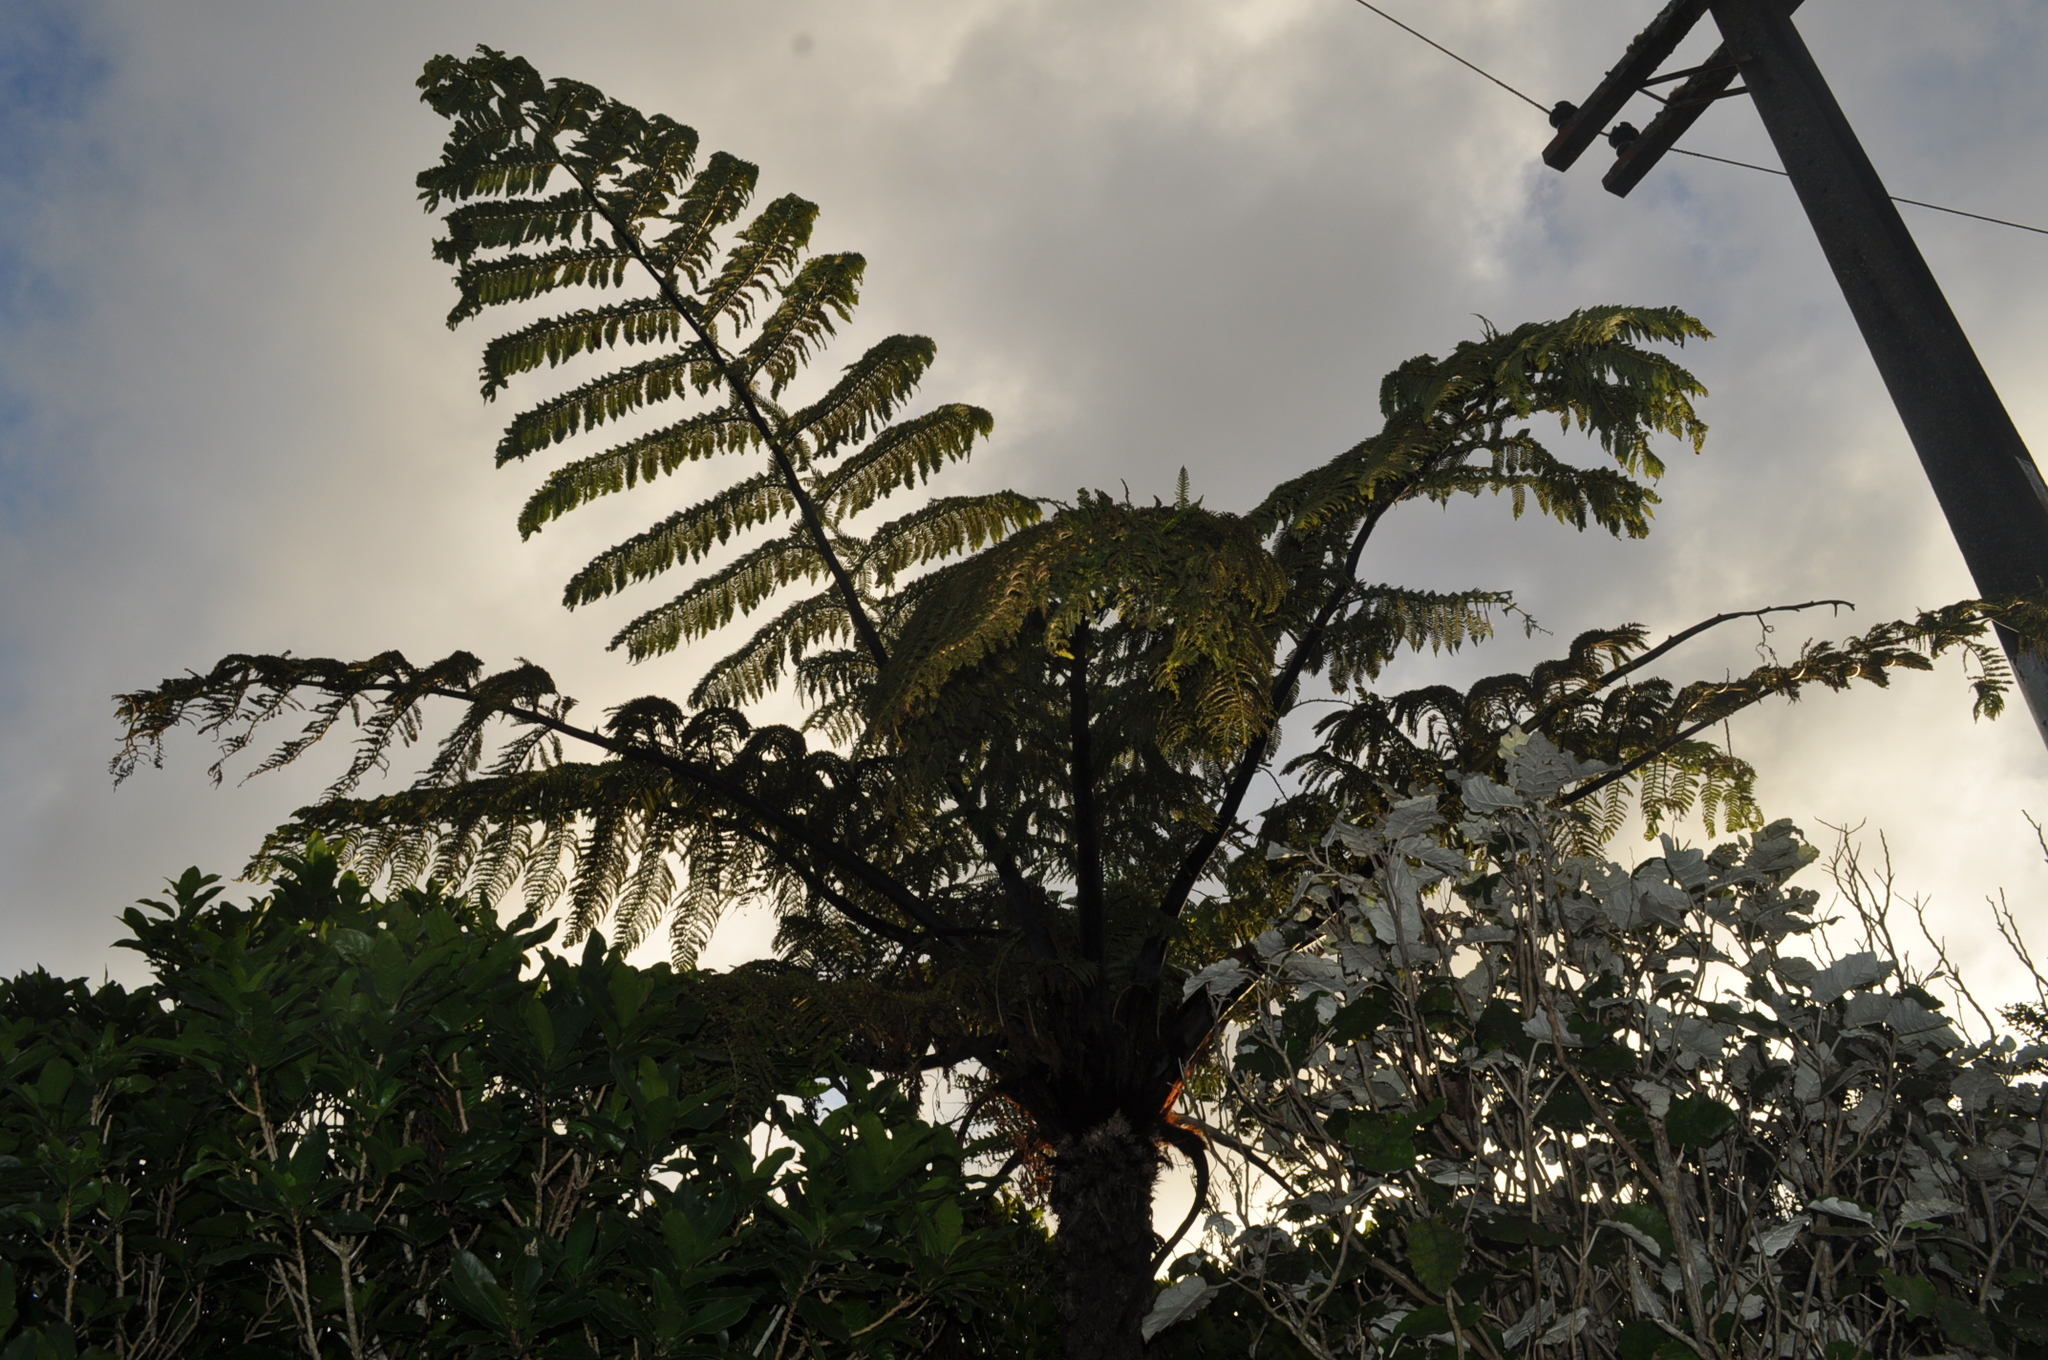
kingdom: Plantae
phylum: Tracheophyta
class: Polypodiopsida
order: Cyatheales
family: Cyatheaceae
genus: Sphaeropteris
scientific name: Sphaeropteris medullaris
